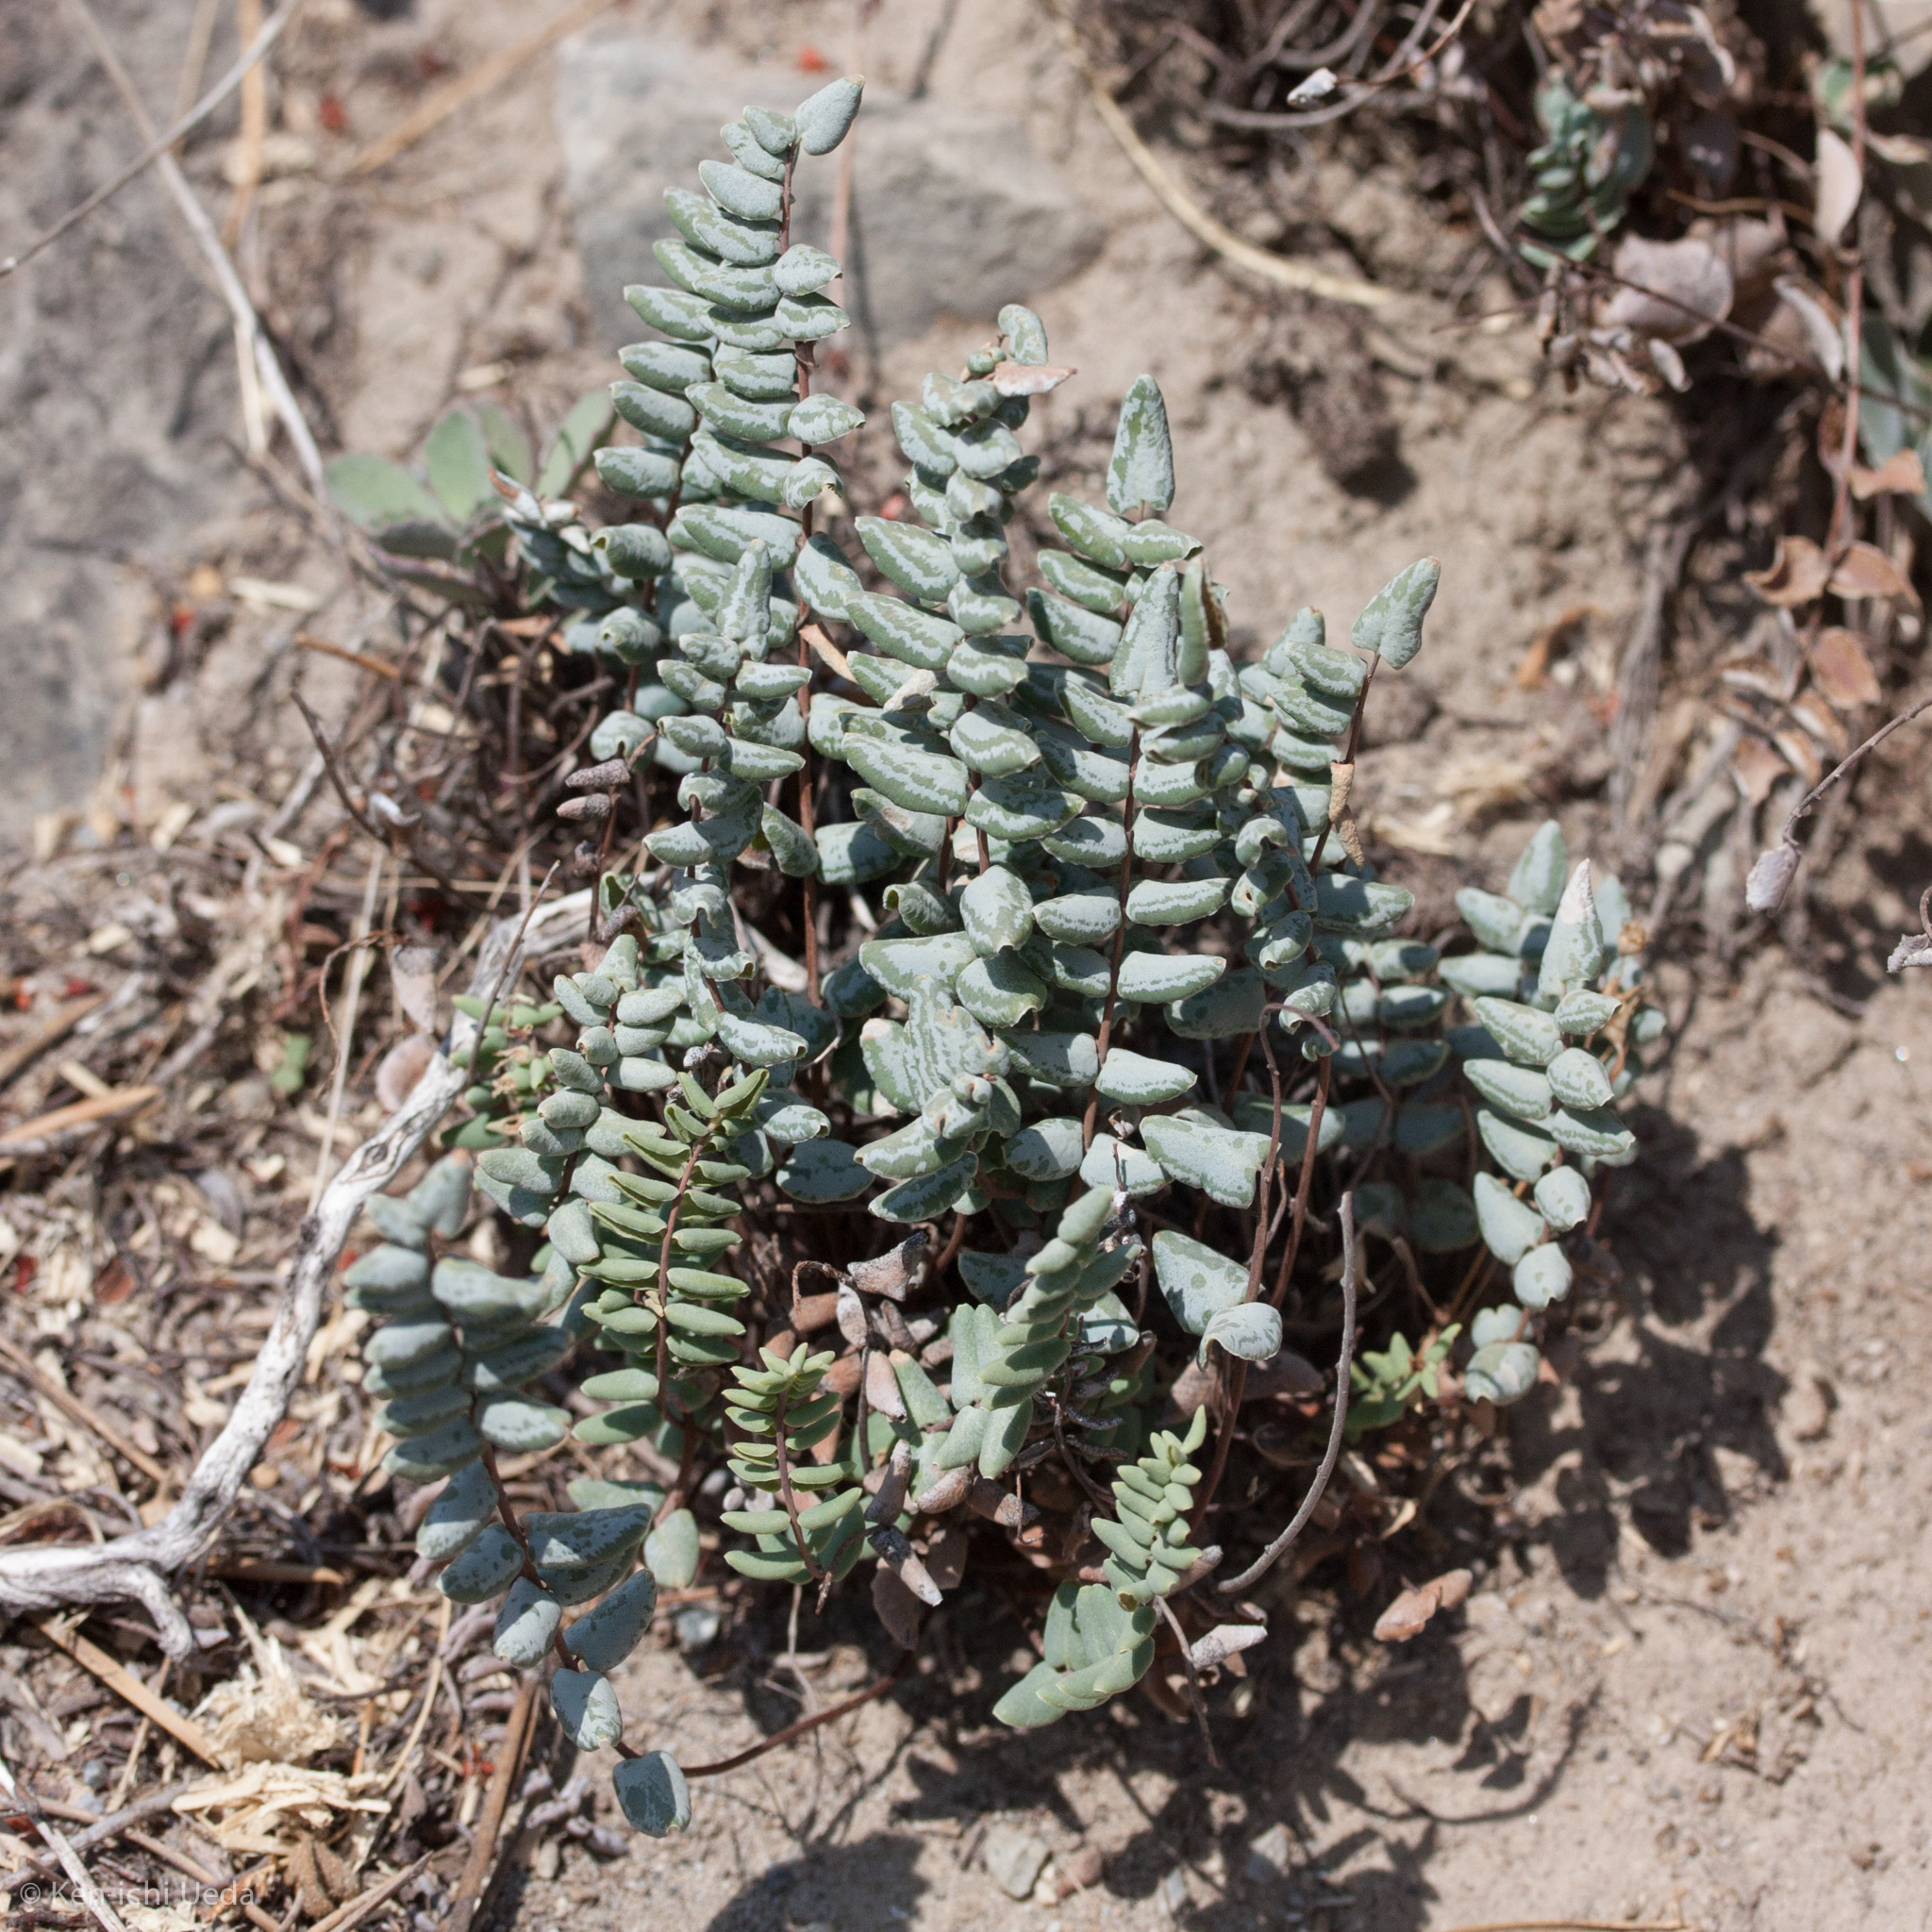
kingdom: Plantae
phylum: Tracheophyta
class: Polypodiopsida
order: Polypodiales
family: Pteridaceae
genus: Pellaea
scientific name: Pellaea bridgesii
